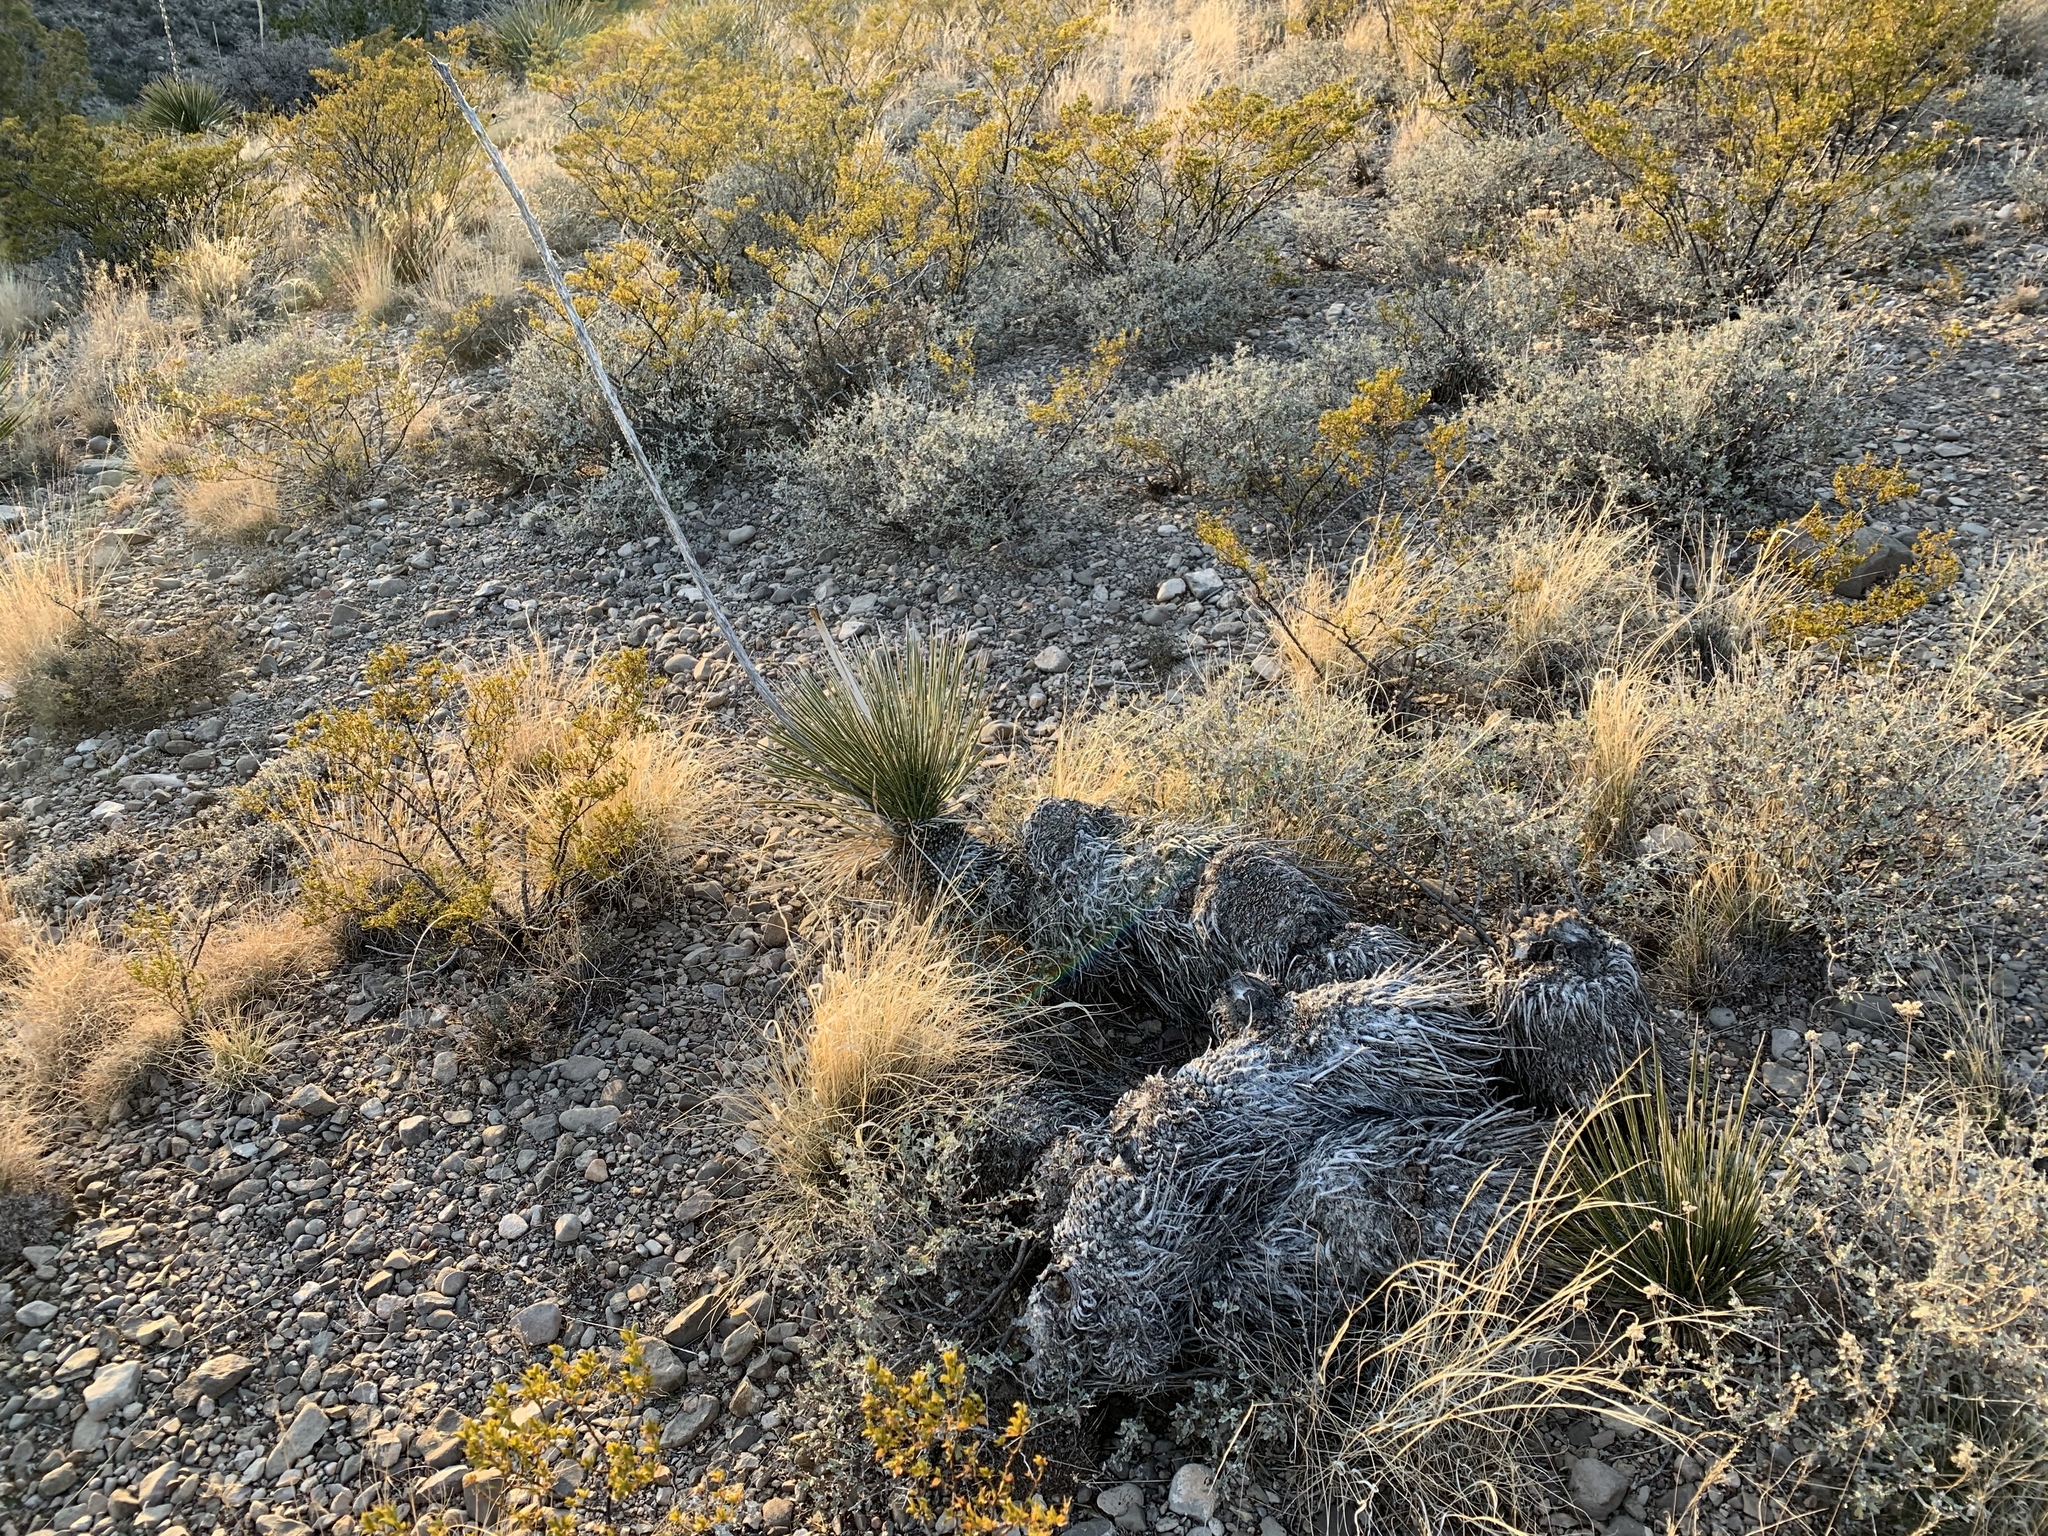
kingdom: Plantae
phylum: Tracheophyta
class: Liliopsida
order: Asparagales
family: Asparagaceae
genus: Yucca
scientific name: Yucca elata
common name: Palmella
